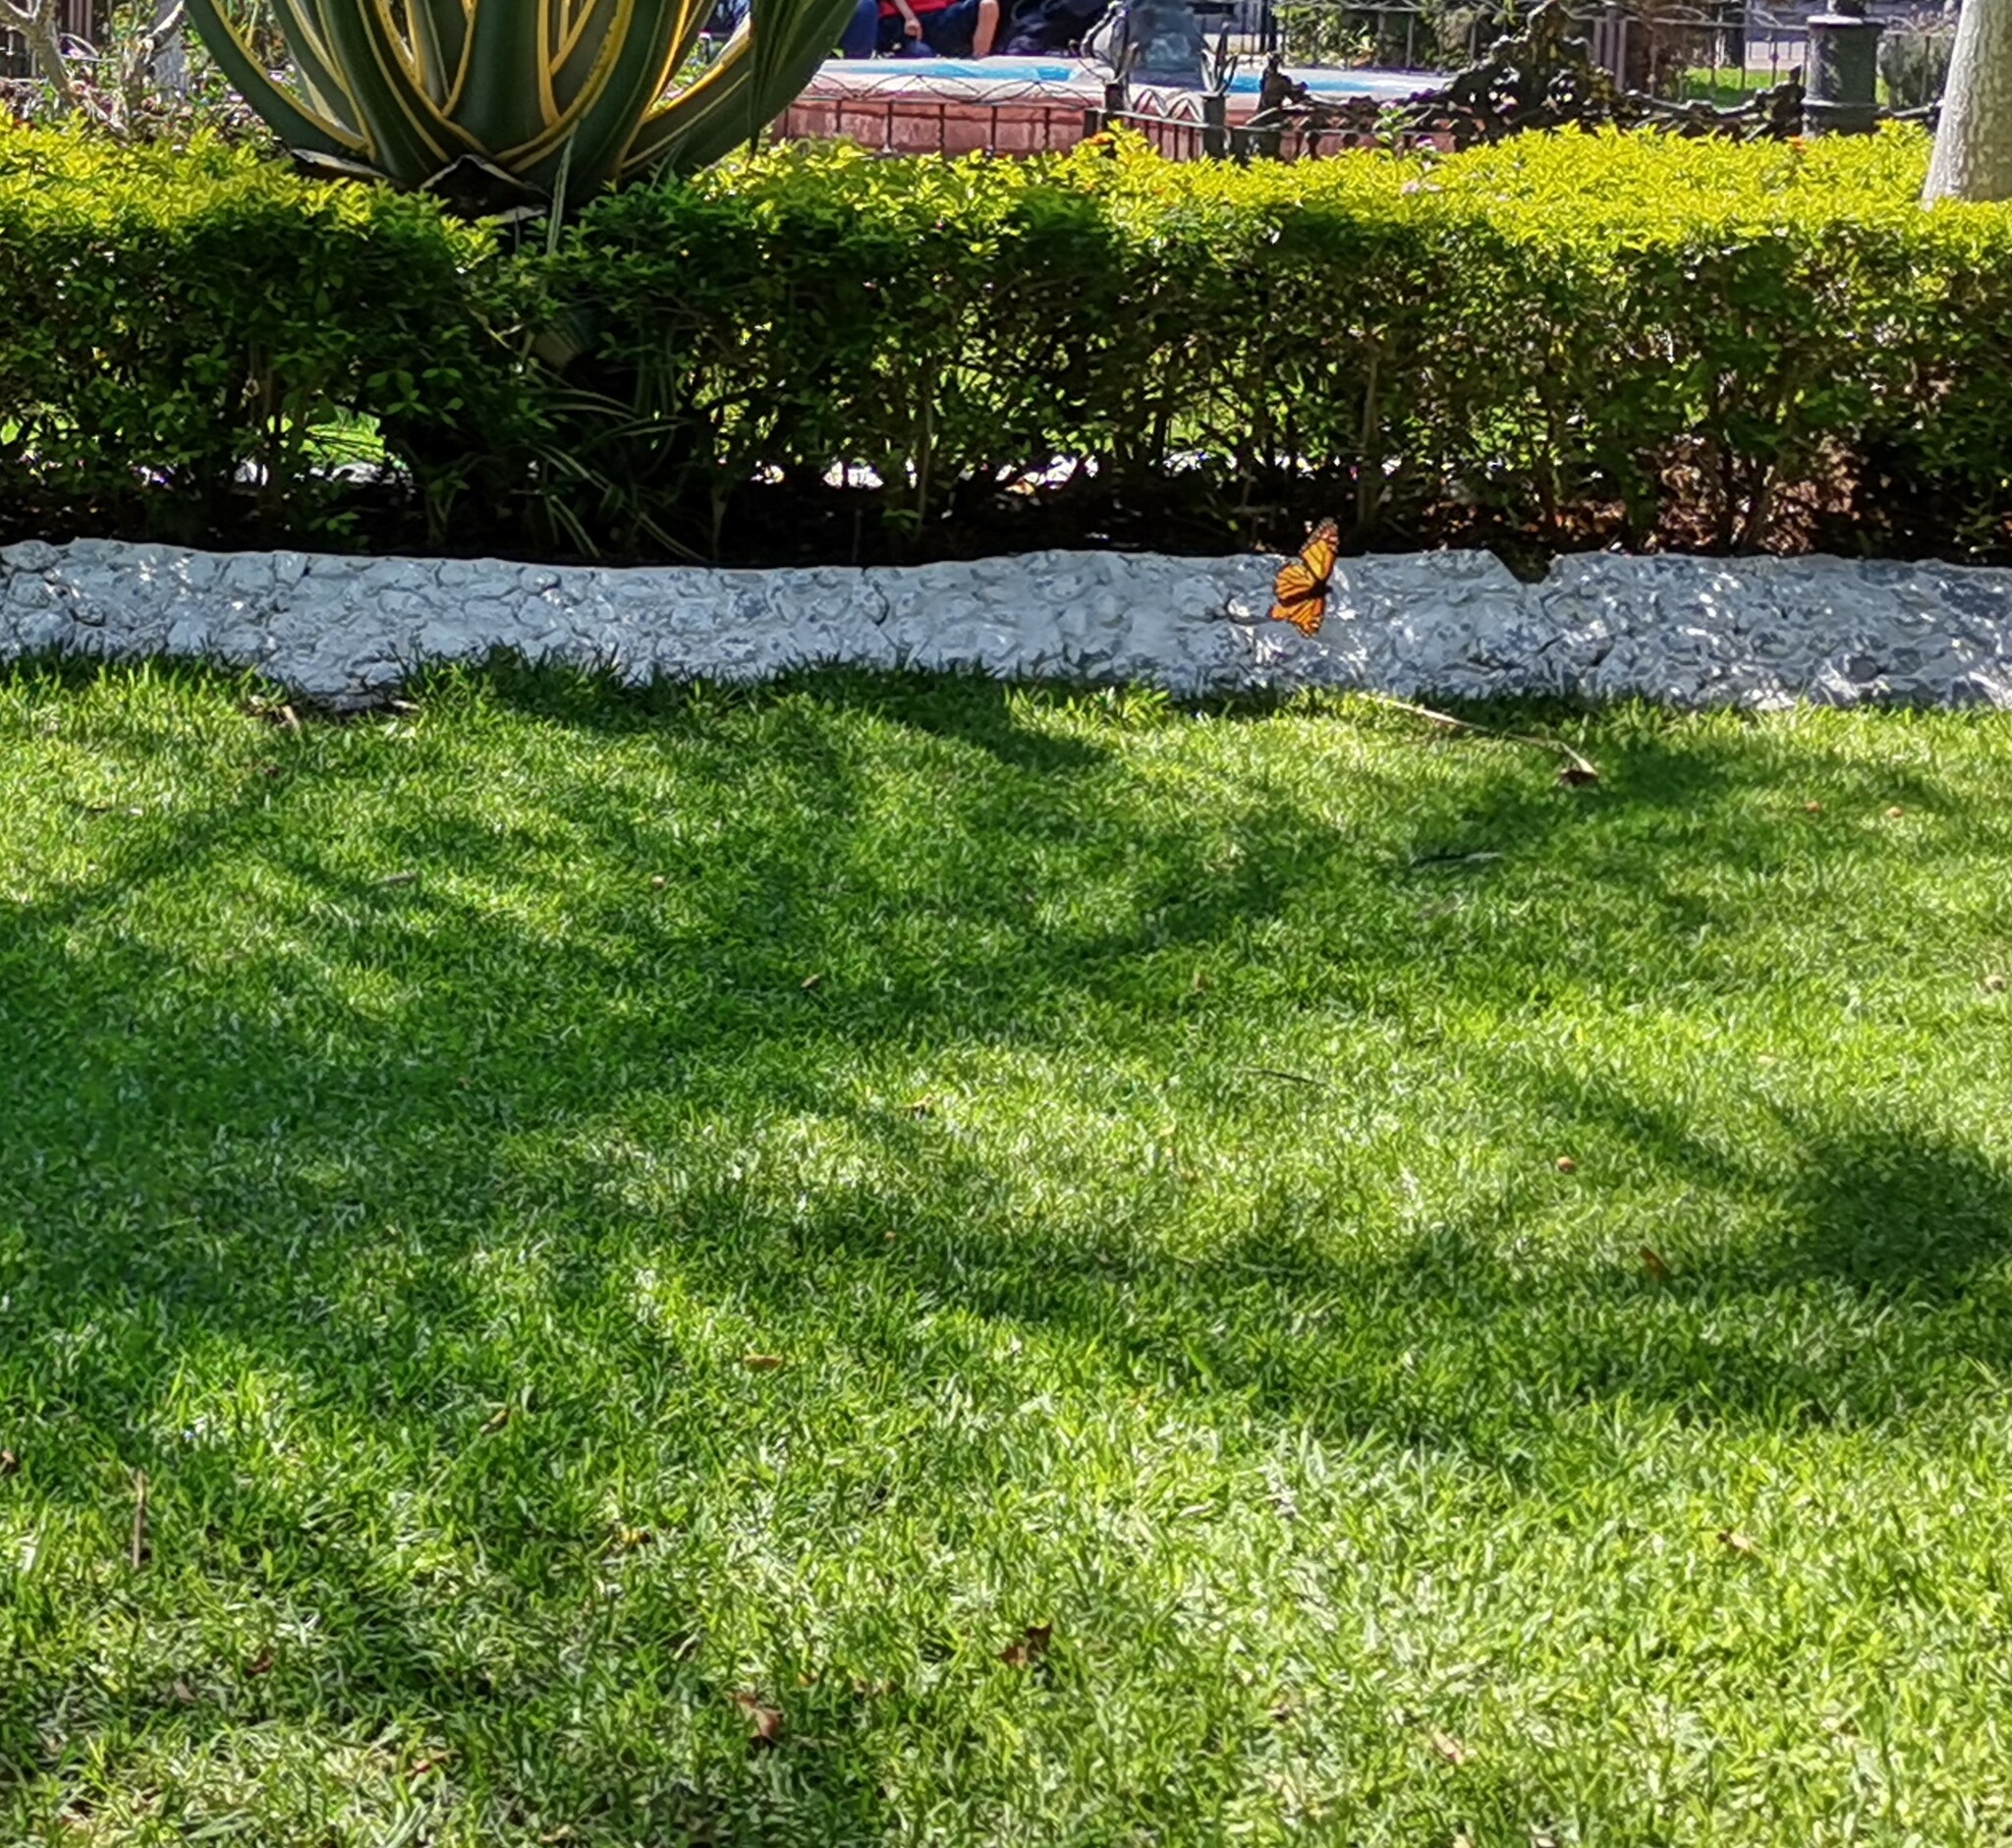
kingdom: Animalia
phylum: Arthropoda
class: Insecta
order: Lepidoptera
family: Nymphalidae
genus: Danaus
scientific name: Danaus plexippus
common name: Monarch
